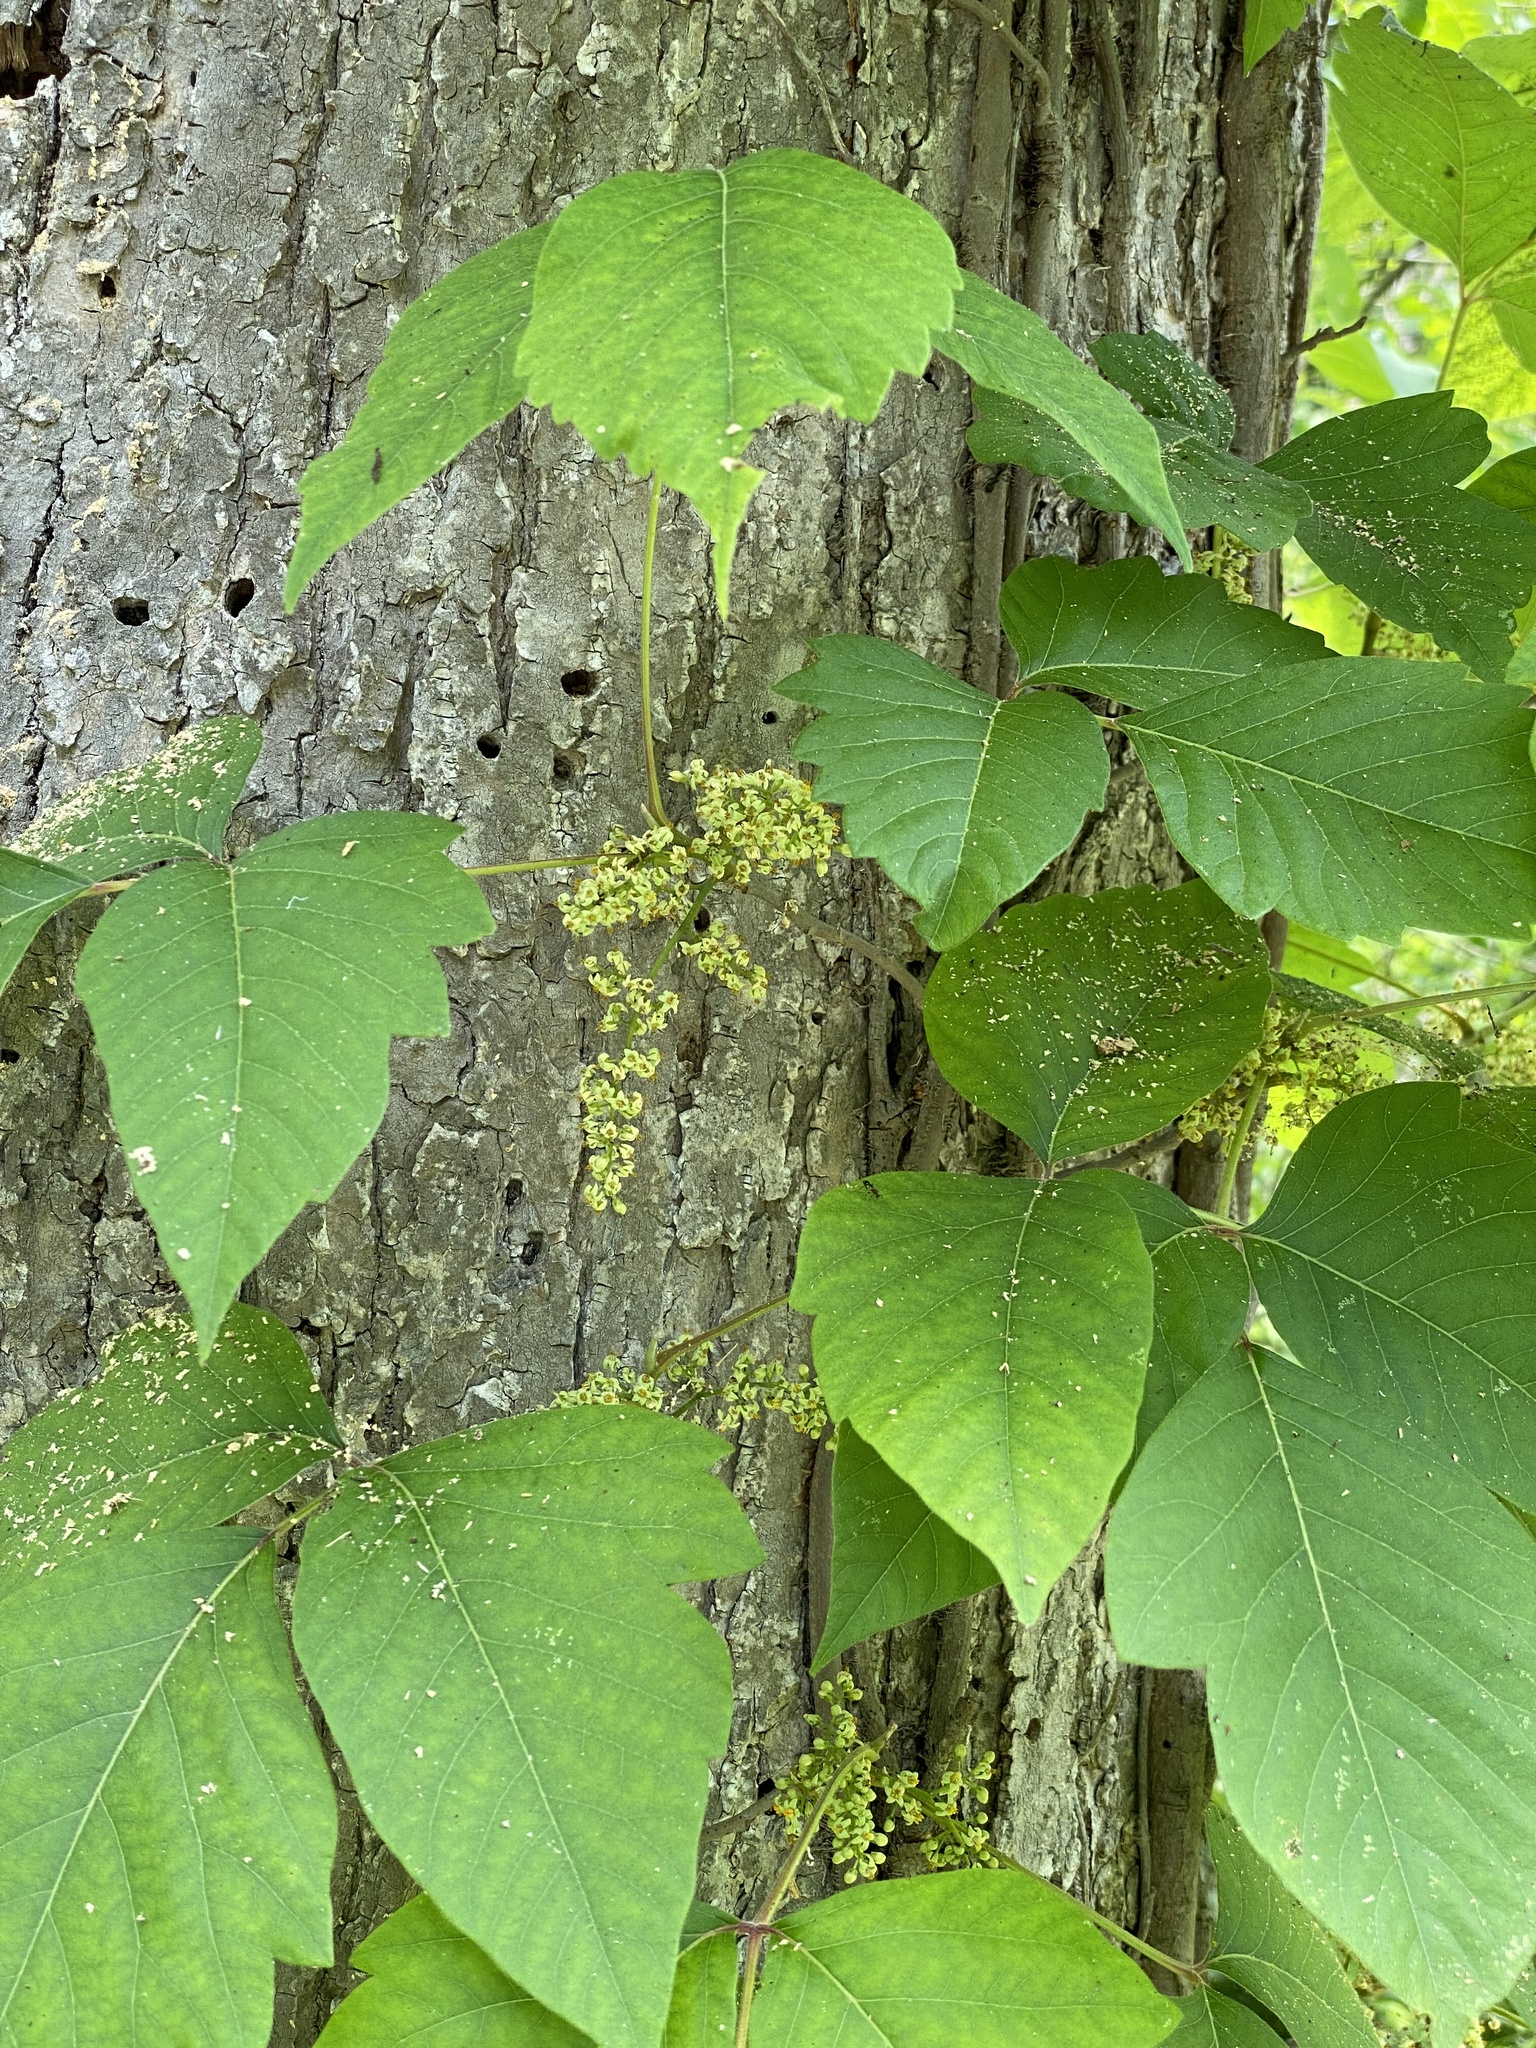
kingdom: Plantae
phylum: Tracheophyta
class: Magnoliopsida
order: Sapindales
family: Anacardiaceae
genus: Toxicodendron
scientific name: Toxicodendron radicans
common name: Poison ivy
